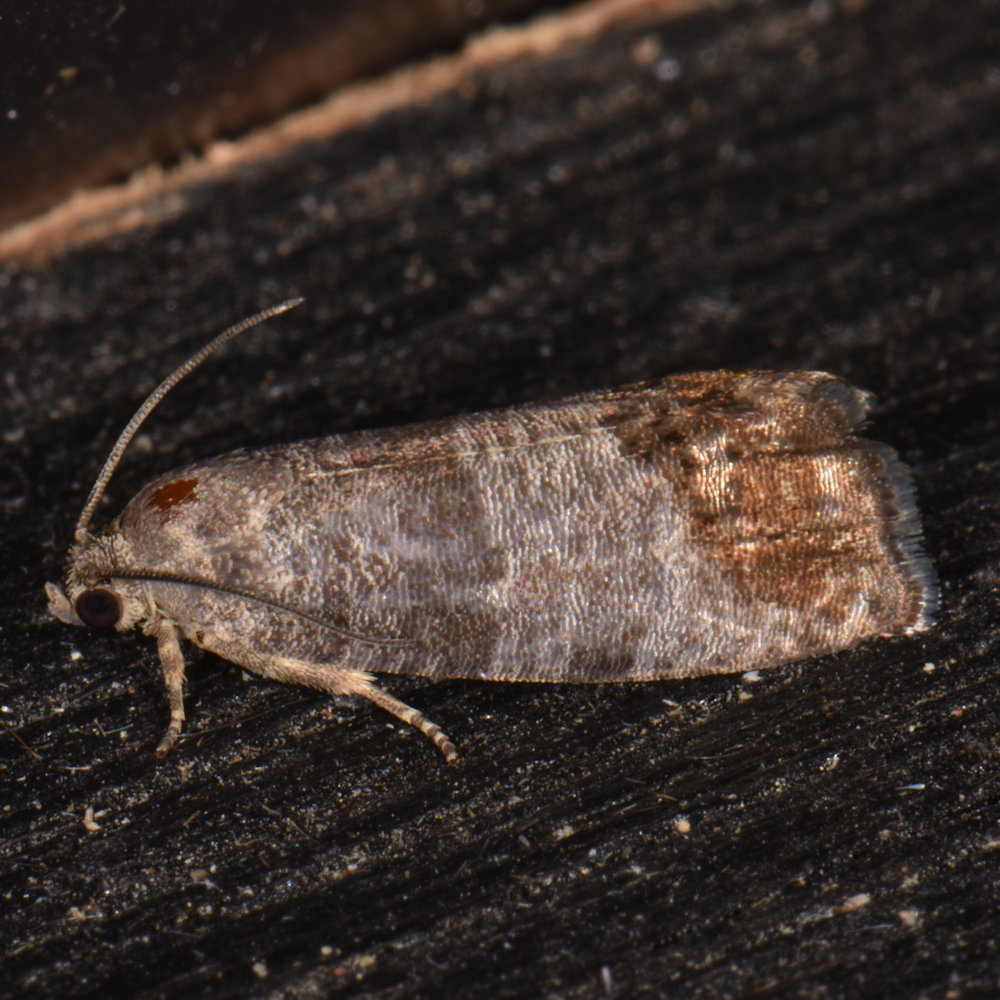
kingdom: Animalia
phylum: Arthropoda
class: Insecta
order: Lepidoptera
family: Tortricidae
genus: Cydia
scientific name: Cydia pomonella
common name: Codling moth
